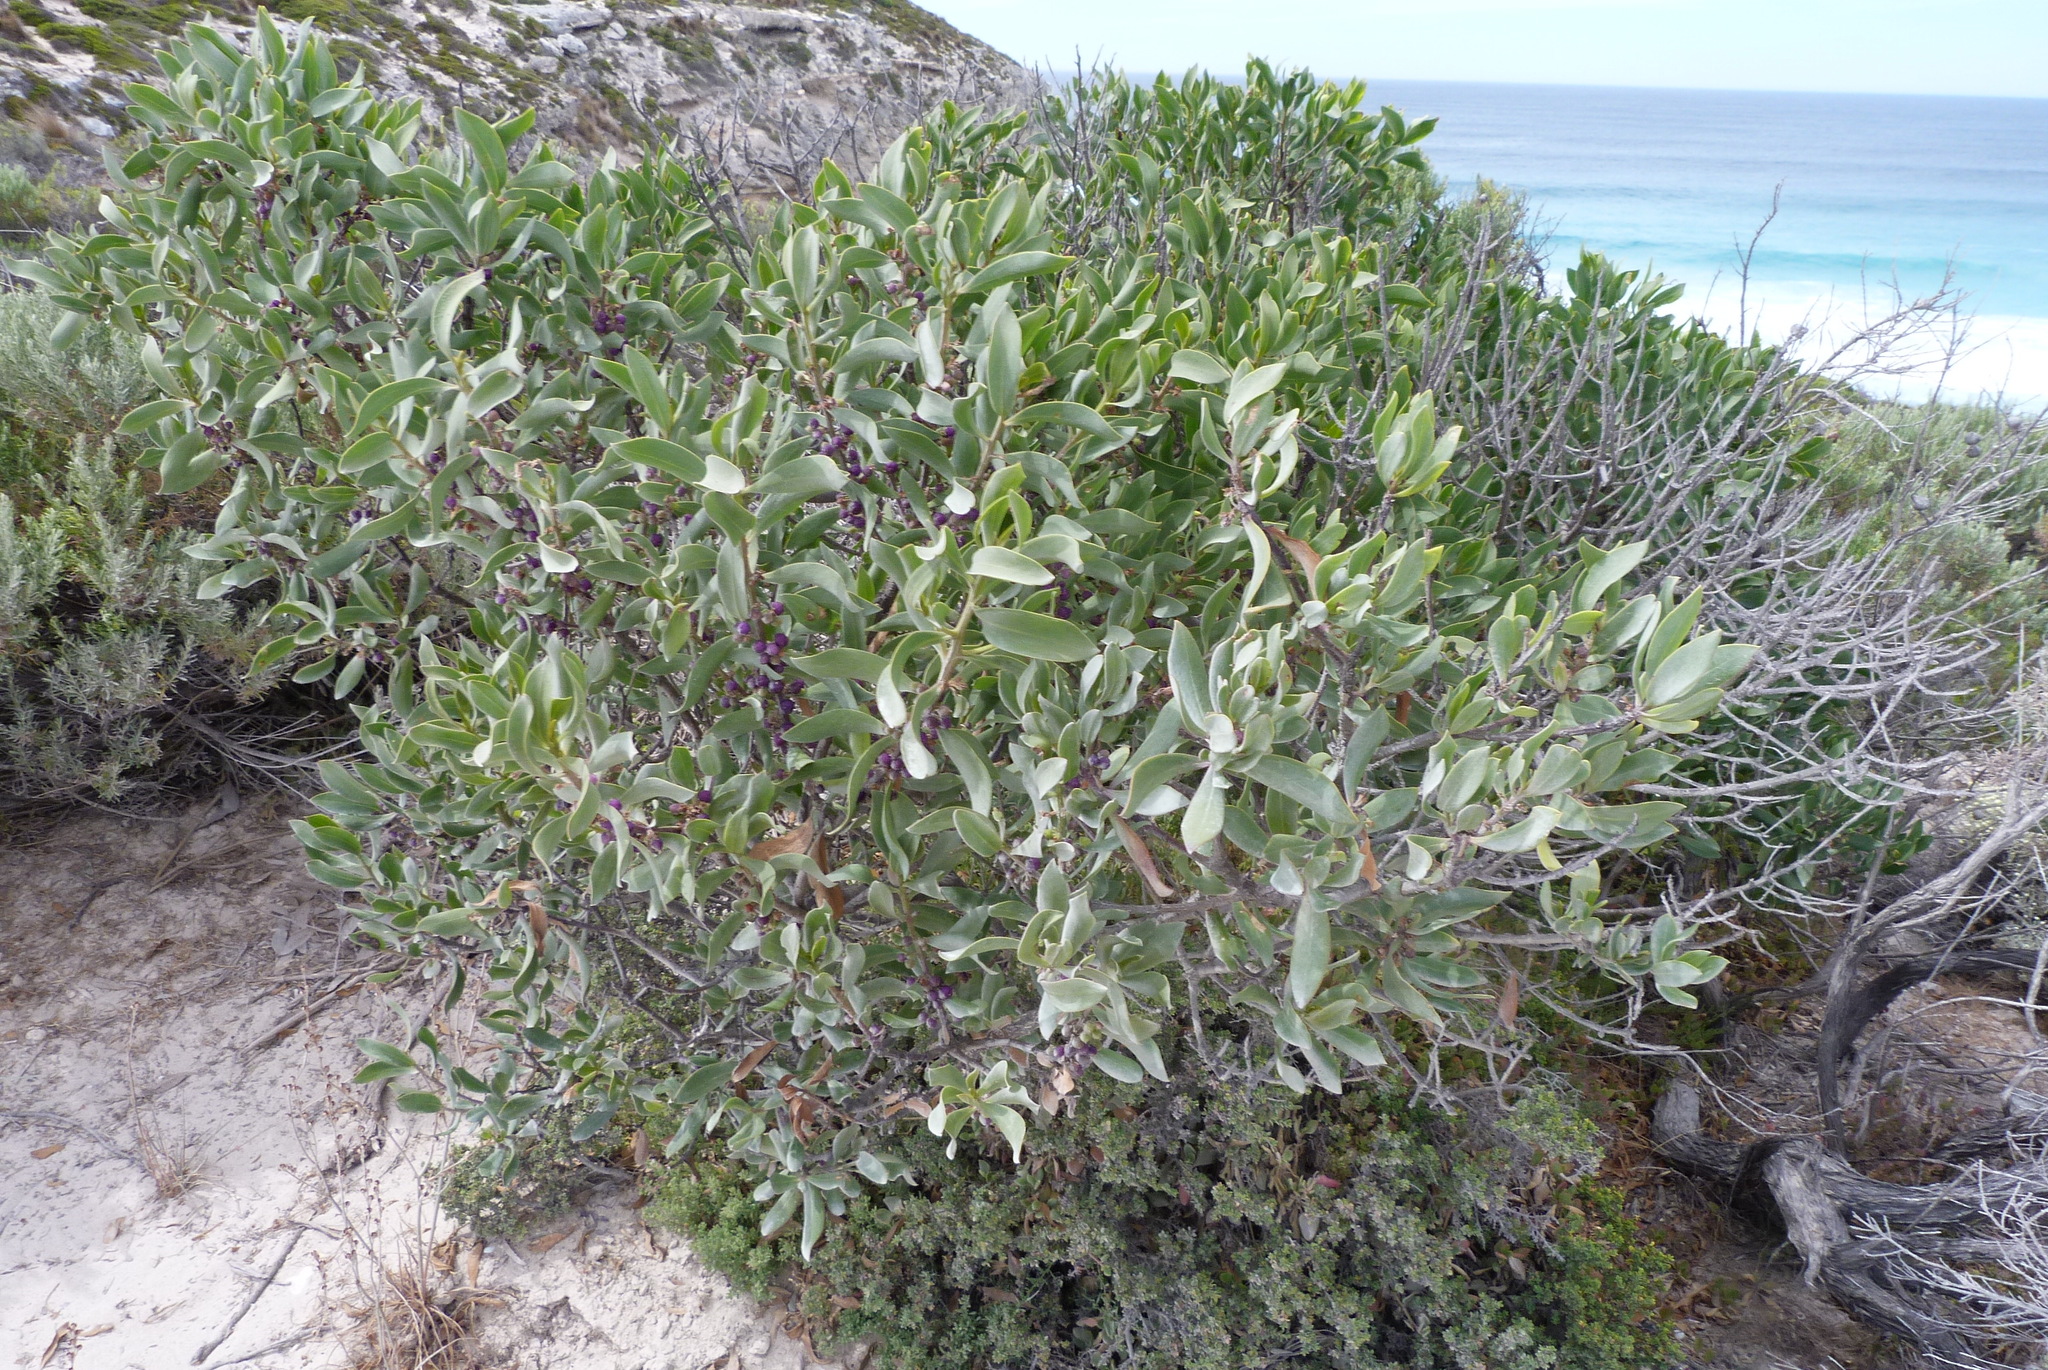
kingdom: Plantae
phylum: Tracheophyta
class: Magnoliopsida
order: Lamiales
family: Scrophulariaceae
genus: Myoporum
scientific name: Myoporum insulare
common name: Common boobialla
